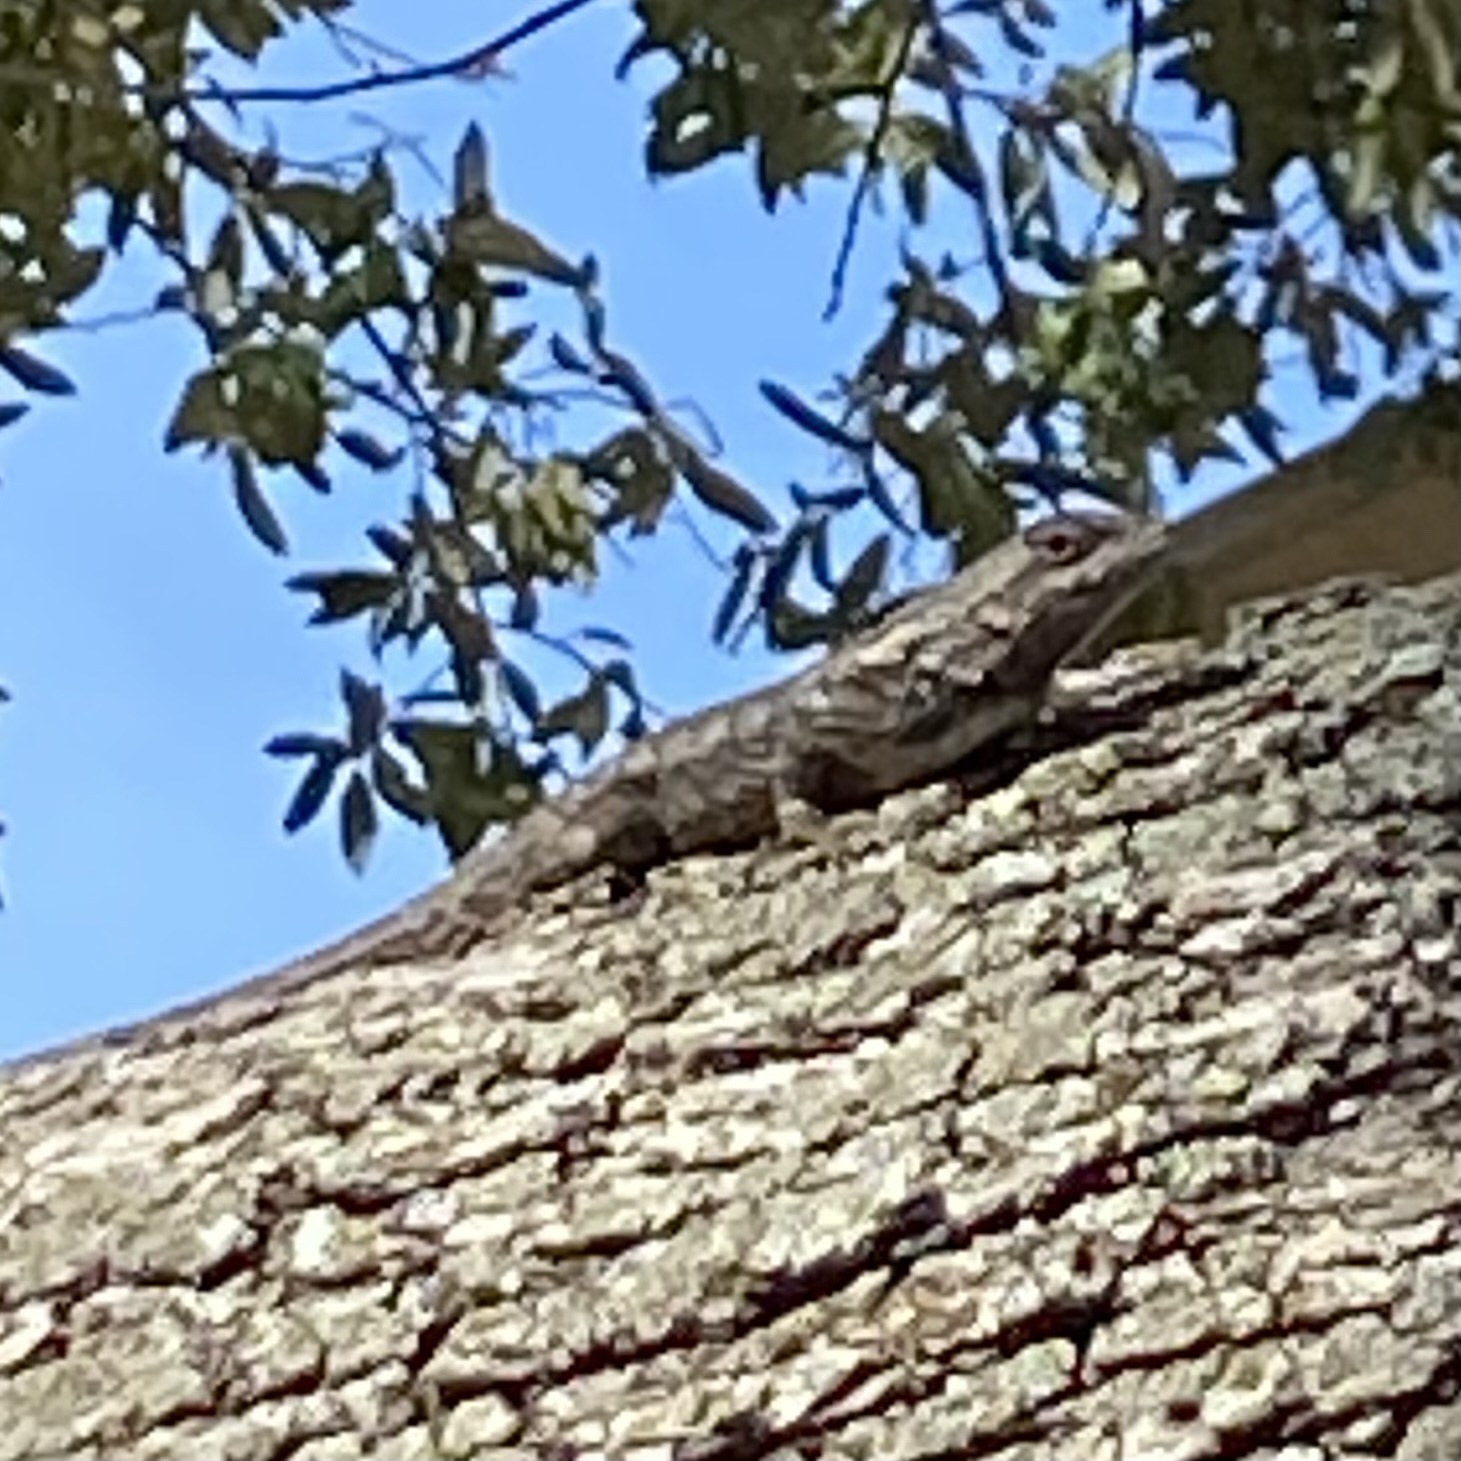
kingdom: Animalia
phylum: Chordata
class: Squamata
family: Phrynosomatidae
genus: Sceloporus
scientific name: Sceloporus olivaceus
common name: Texas spiny lizard
